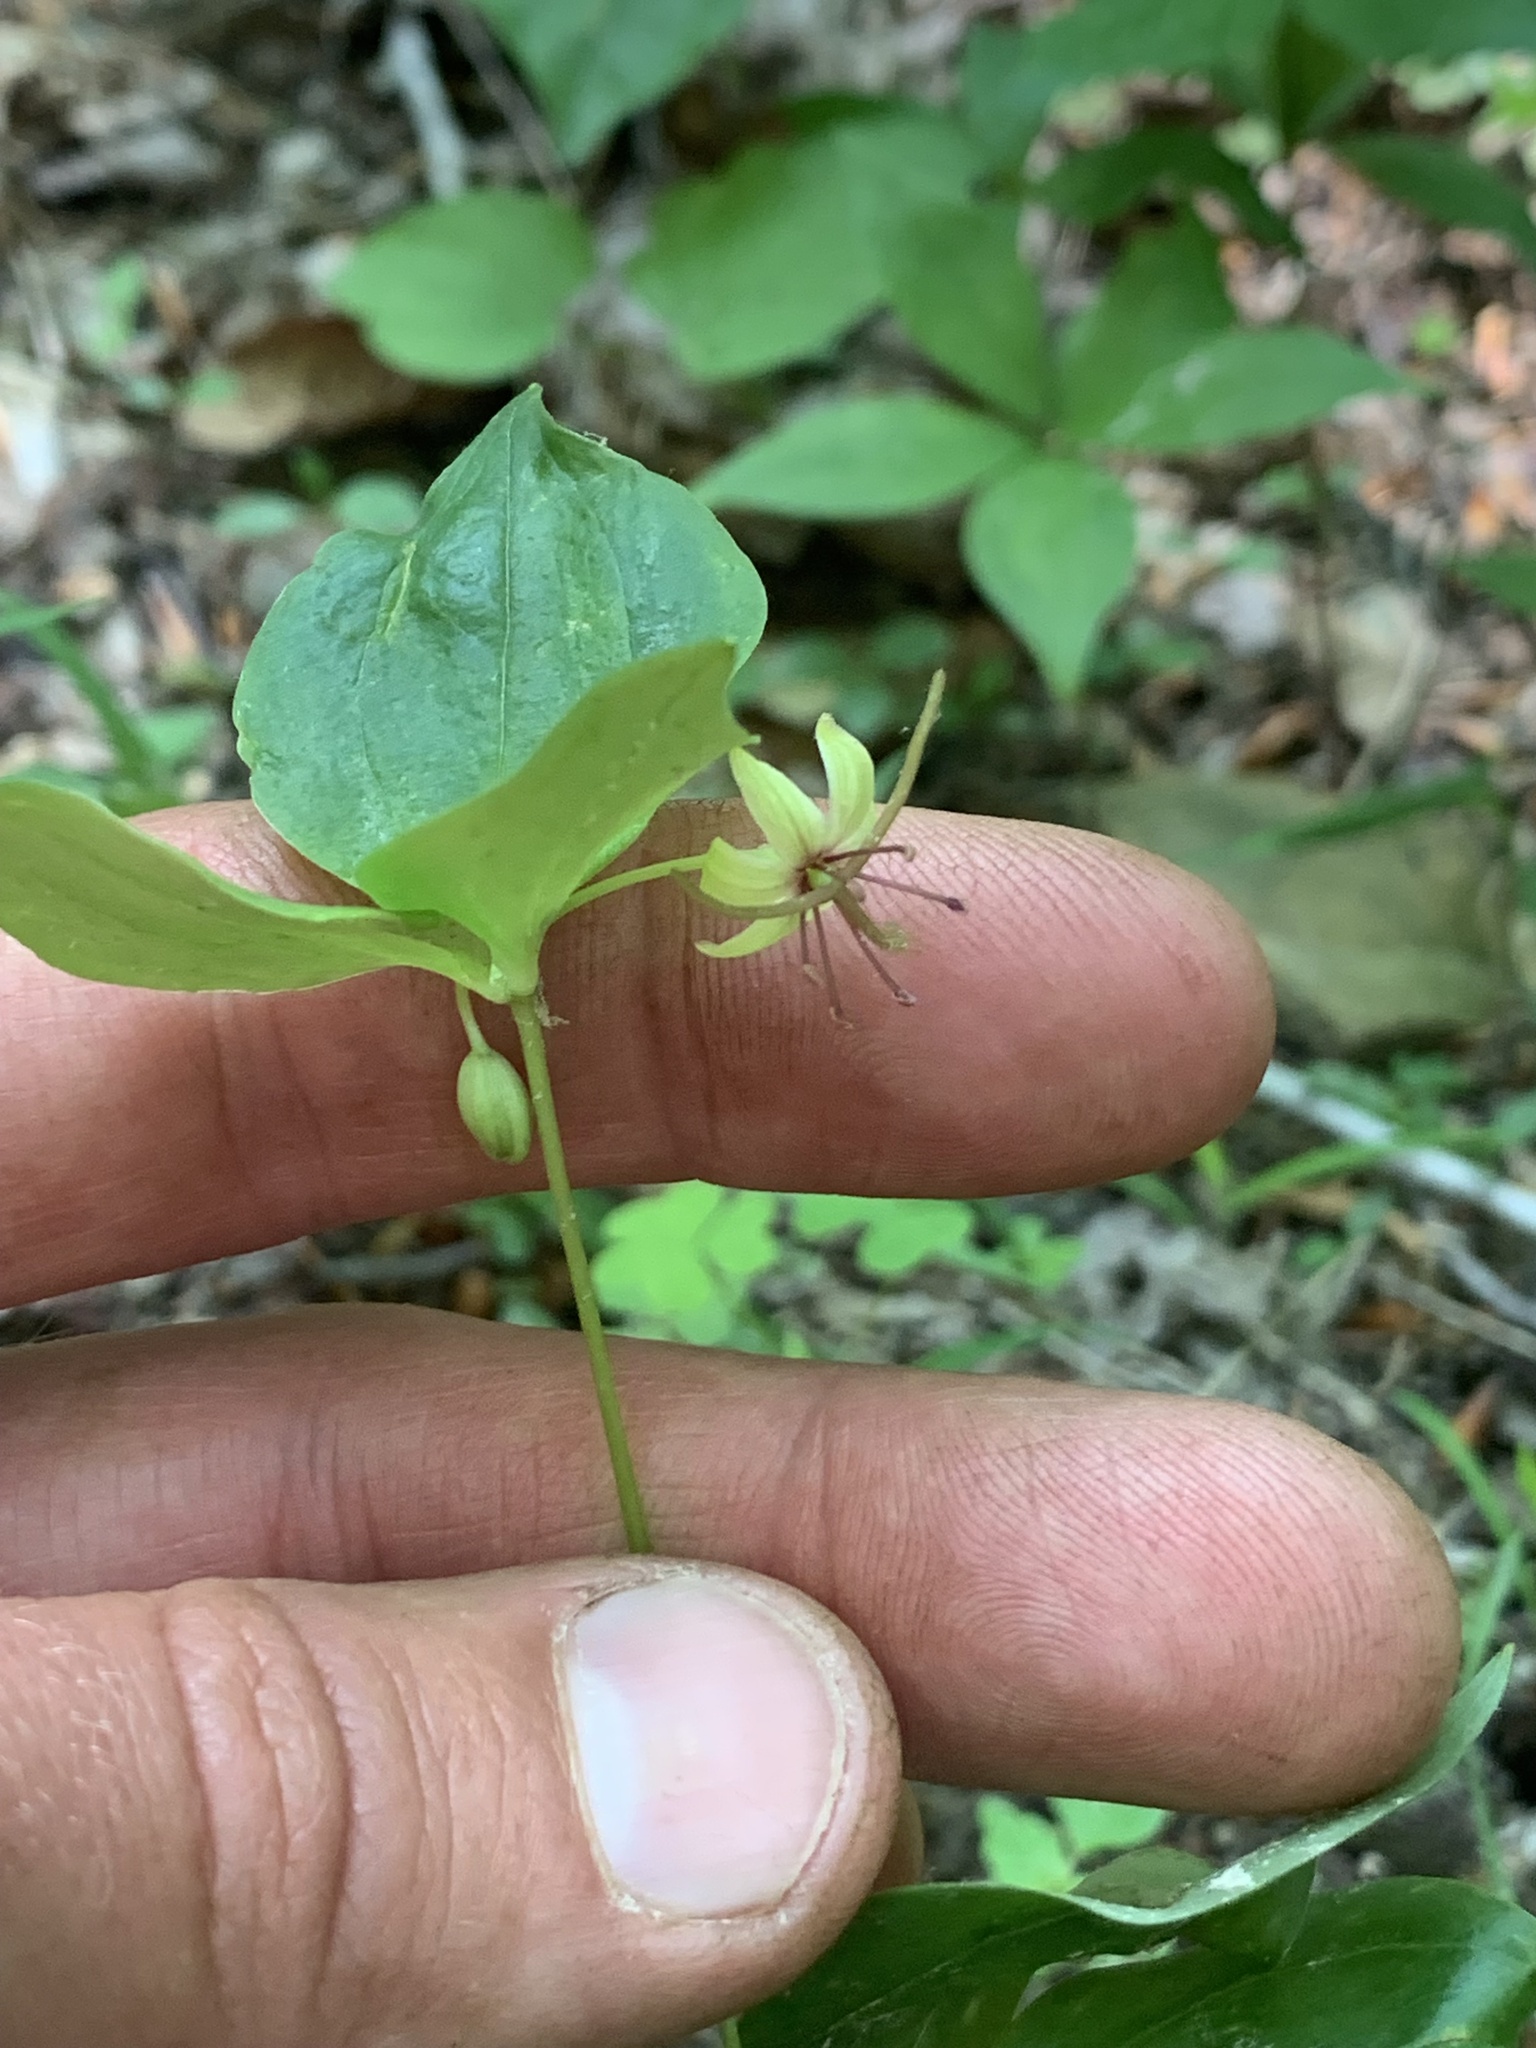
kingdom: Plantae
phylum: Tracheophyta
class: Liliopsida
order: Liliales
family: Liliaceae
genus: Medeola
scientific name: Medeola virginiana
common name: Indian cucumber-root
